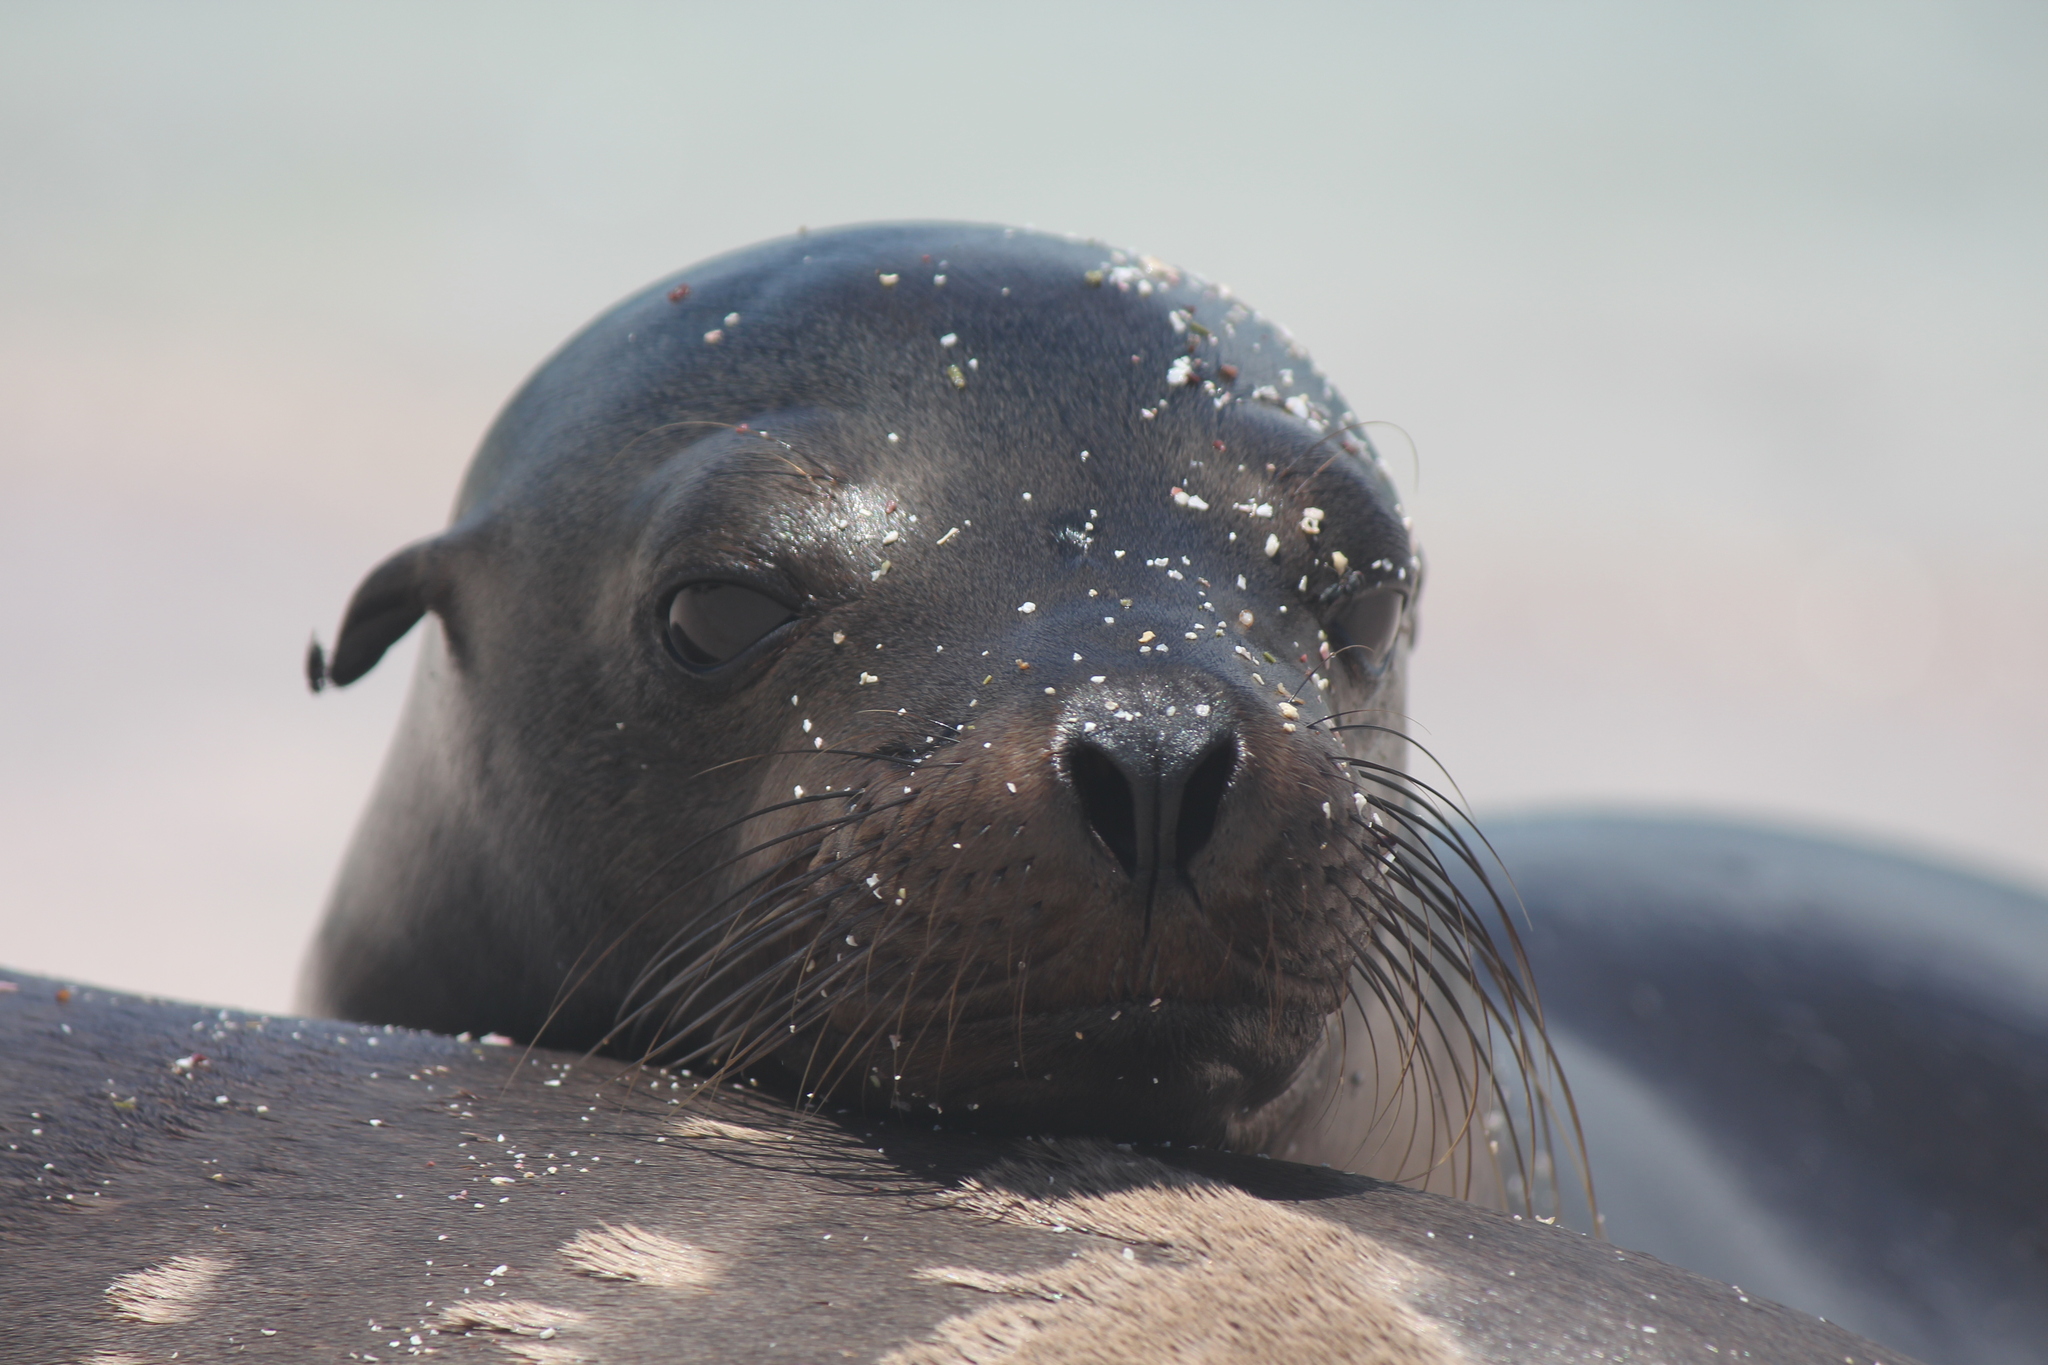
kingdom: Animalia
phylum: Chordata
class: Mammalia
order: Carnivora
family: Otariidae
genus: Zalophus
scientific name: Zalophus wollebaeki
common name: Galapagos sea lion
